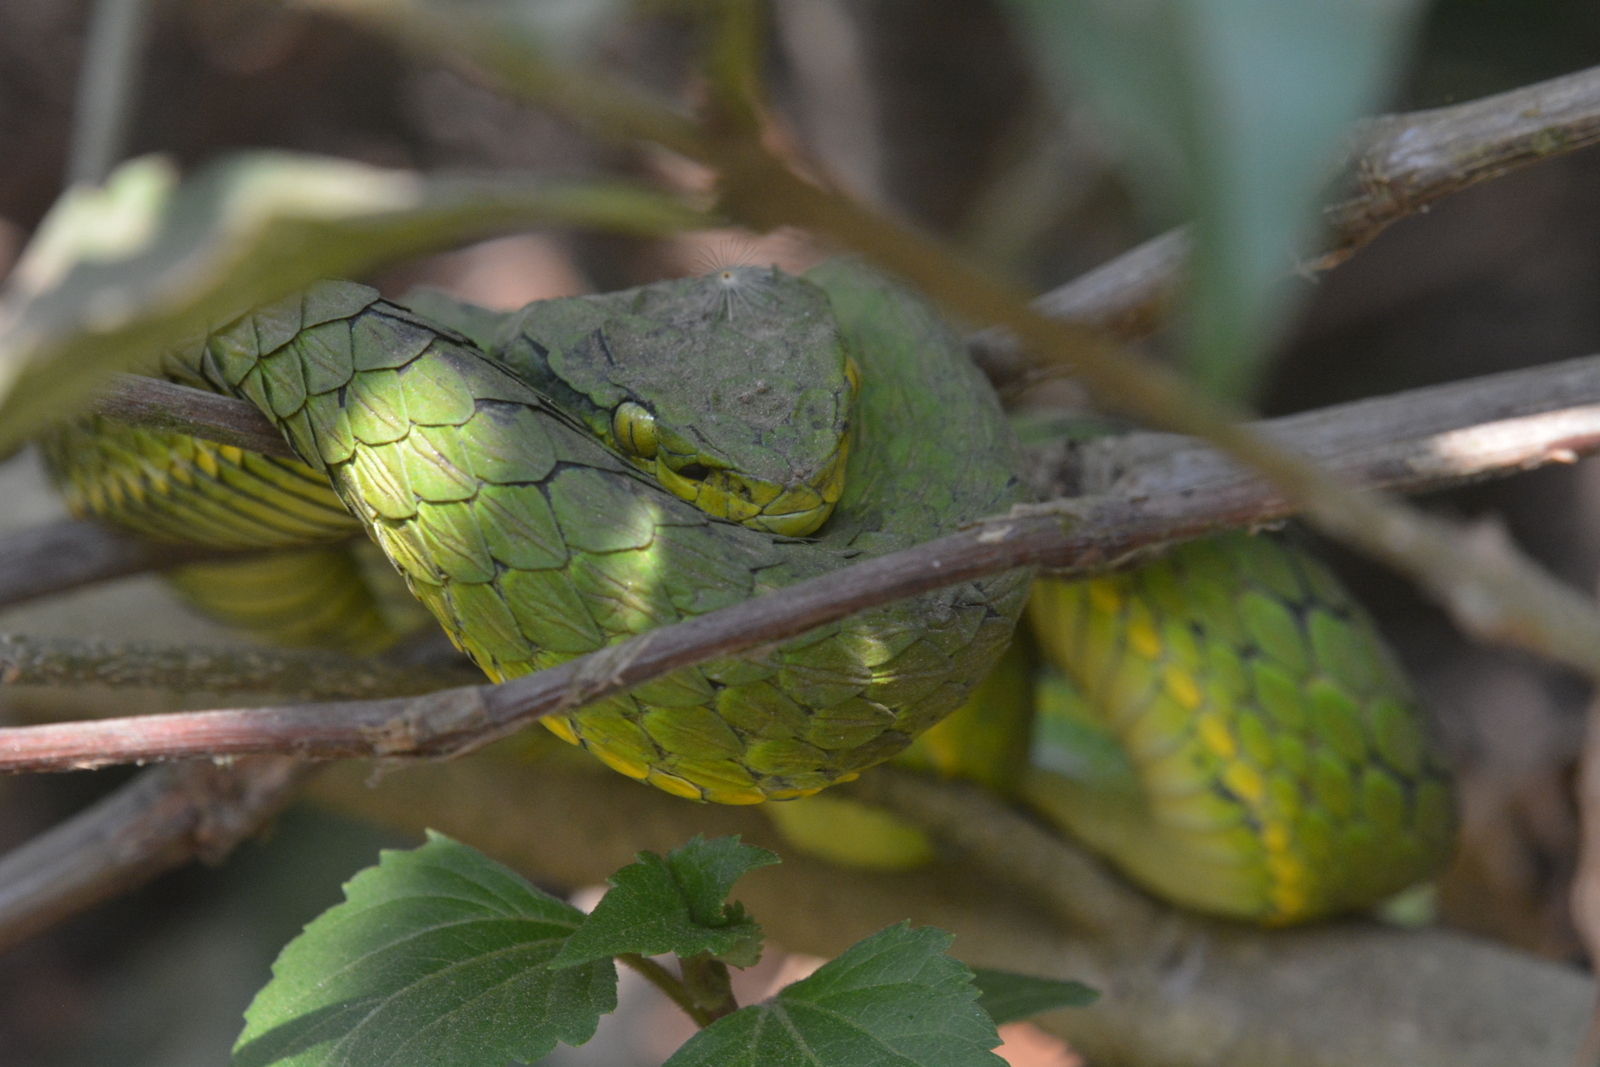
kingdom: Animalia
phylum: Chordata
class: Squamata
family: Viperidae
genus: Craspedocephalus
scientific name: Craspedocephalus macrolepis
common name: Large-scaled pit viper
